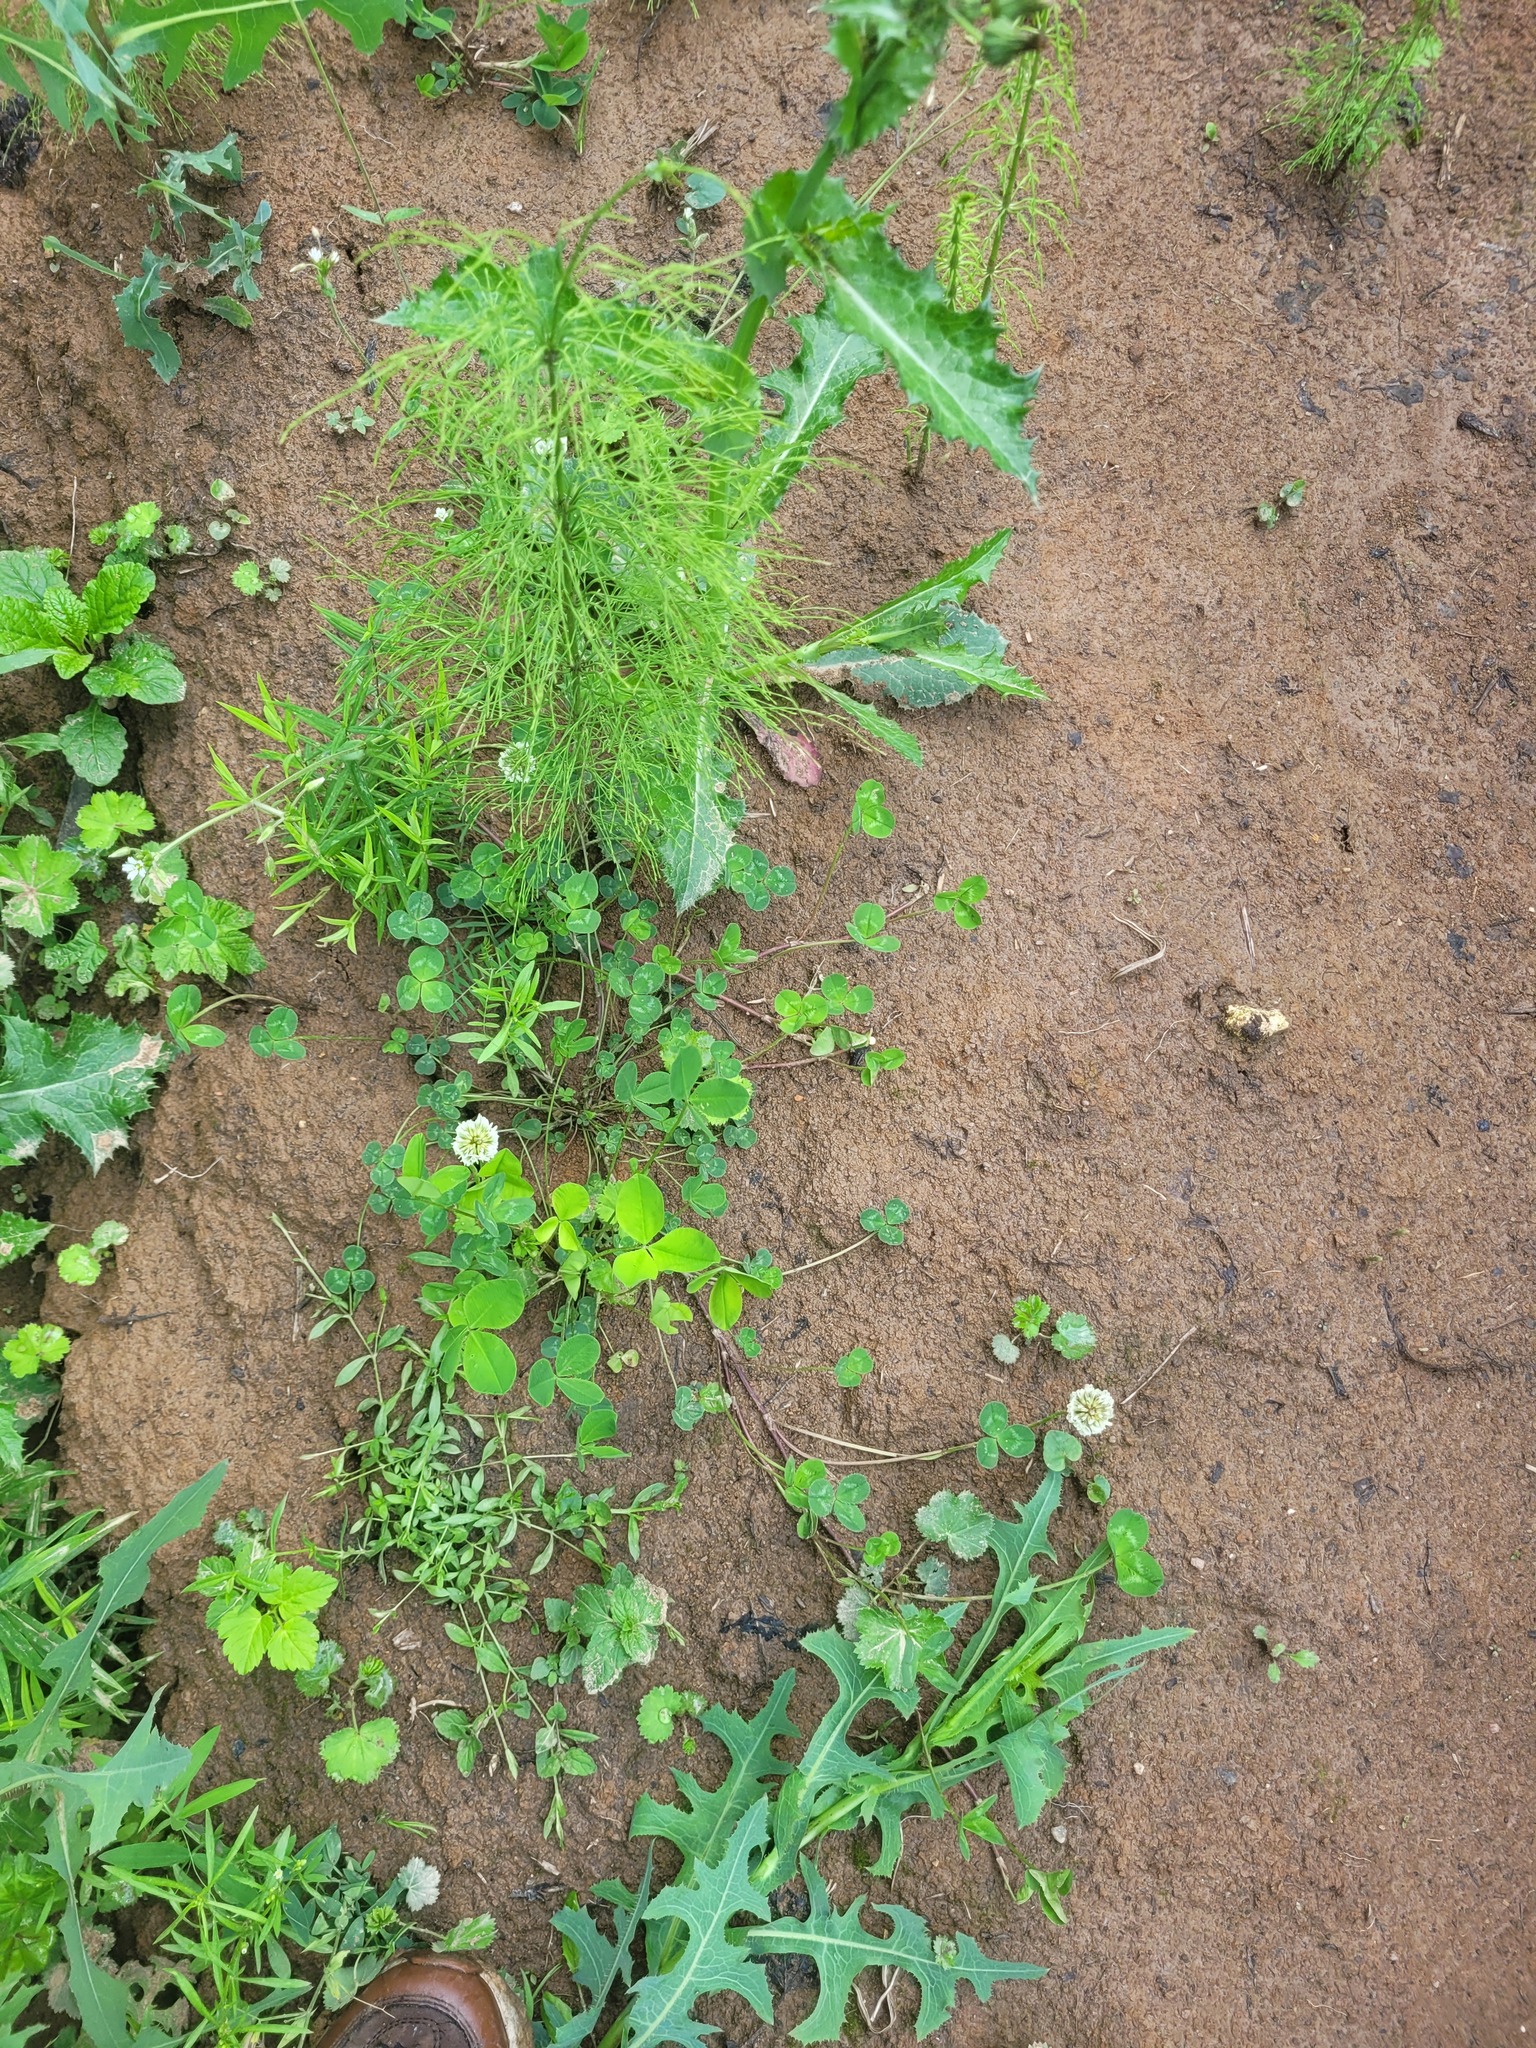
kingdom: Plantae
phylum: Tracheophyta
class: Magnoliopsida
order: Fabales
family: Fabaceae
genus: Trifolium
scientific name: Trifolium repens
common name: White clover
